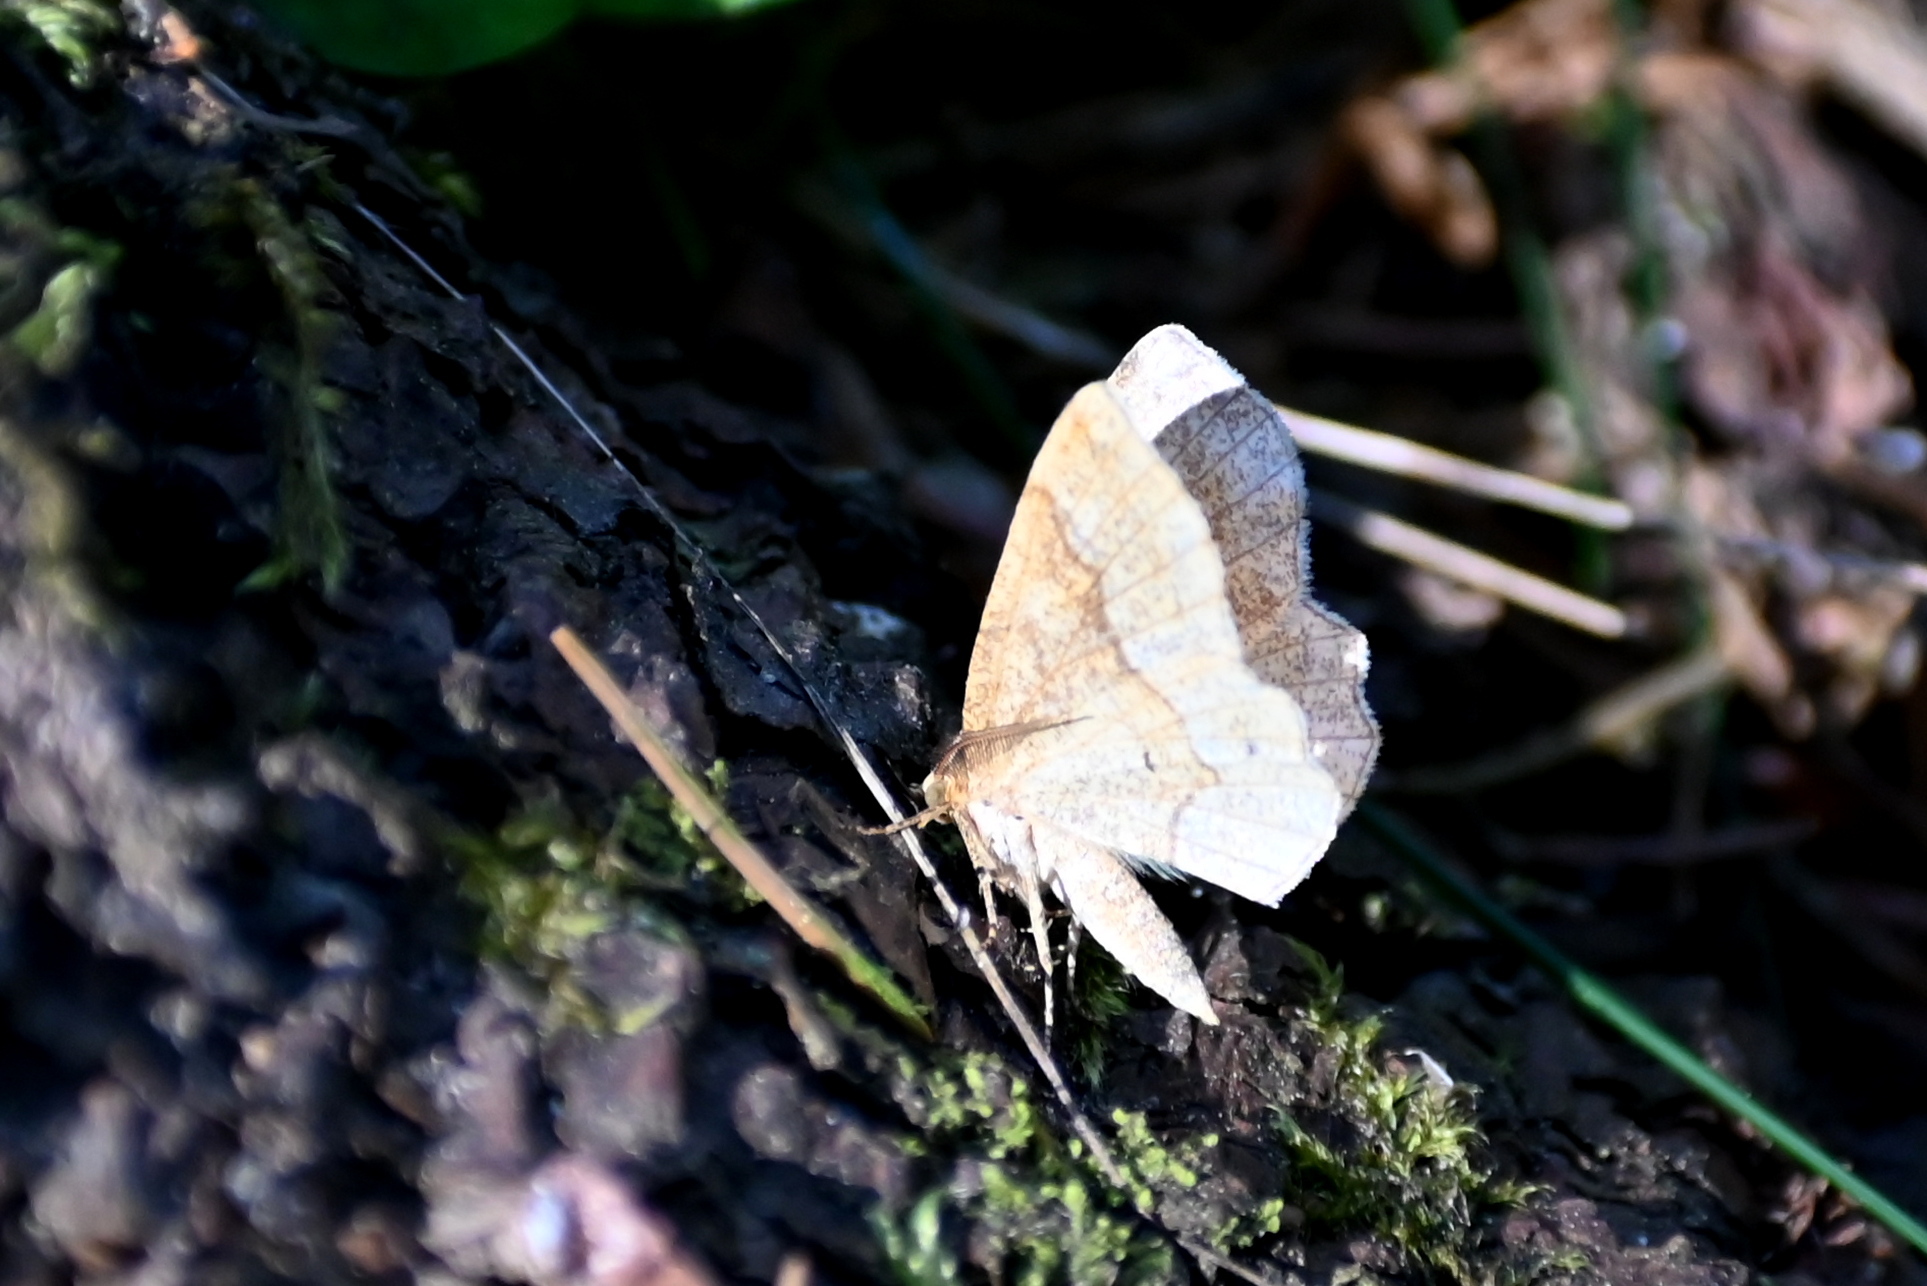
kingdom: Animalia
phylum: Arthropoda
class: Insecta
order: Lepidoptera
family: Geometridae
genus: Cepphis
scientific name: Cepphis advenaria
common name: Little thorn
